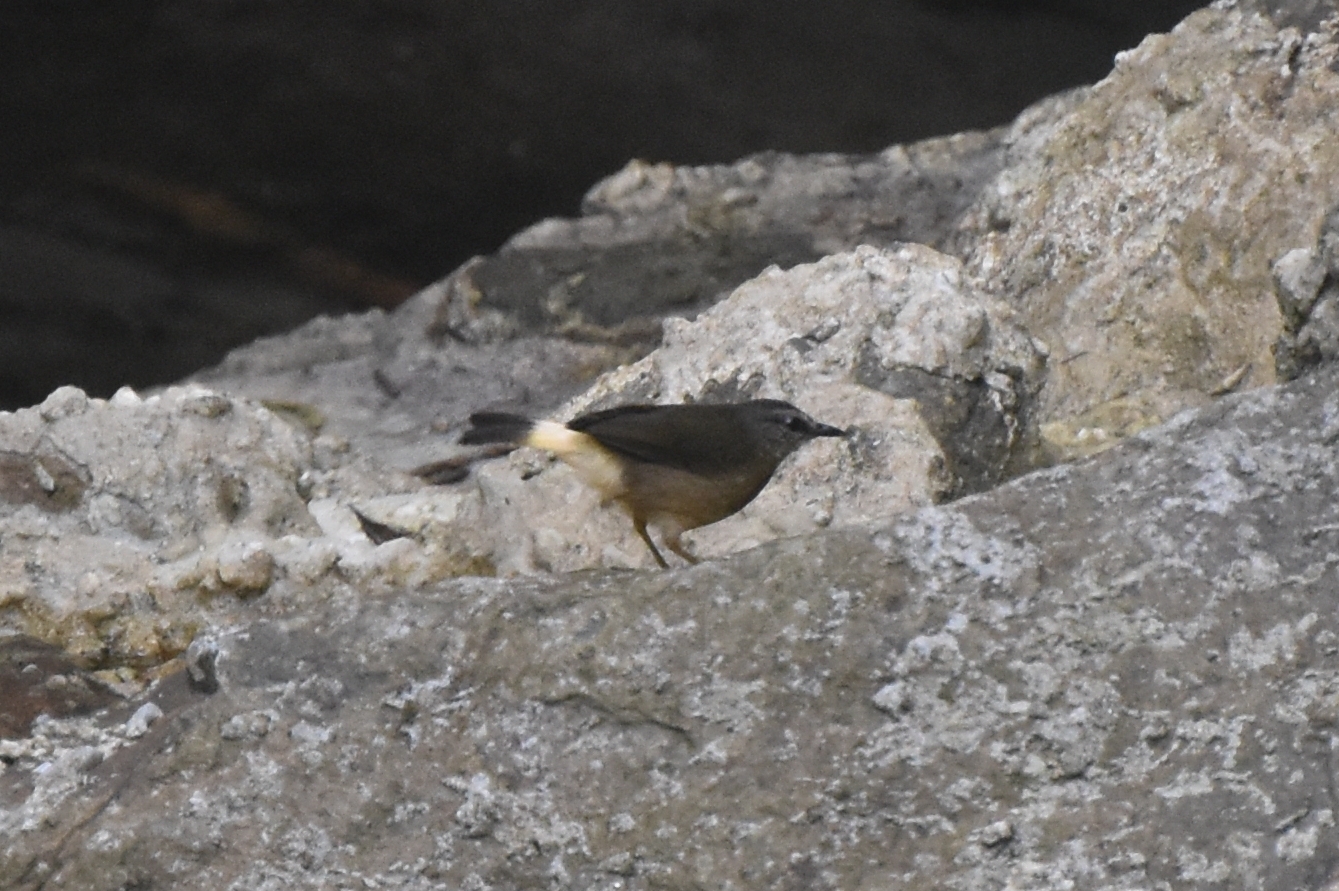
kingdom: Animalia
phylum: Chordata
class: Aves
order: Passeriformes
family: Parulidae
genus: Myiothlypis
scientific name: Myiothlypis fulvicauda
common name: Buff-rumped warbler
